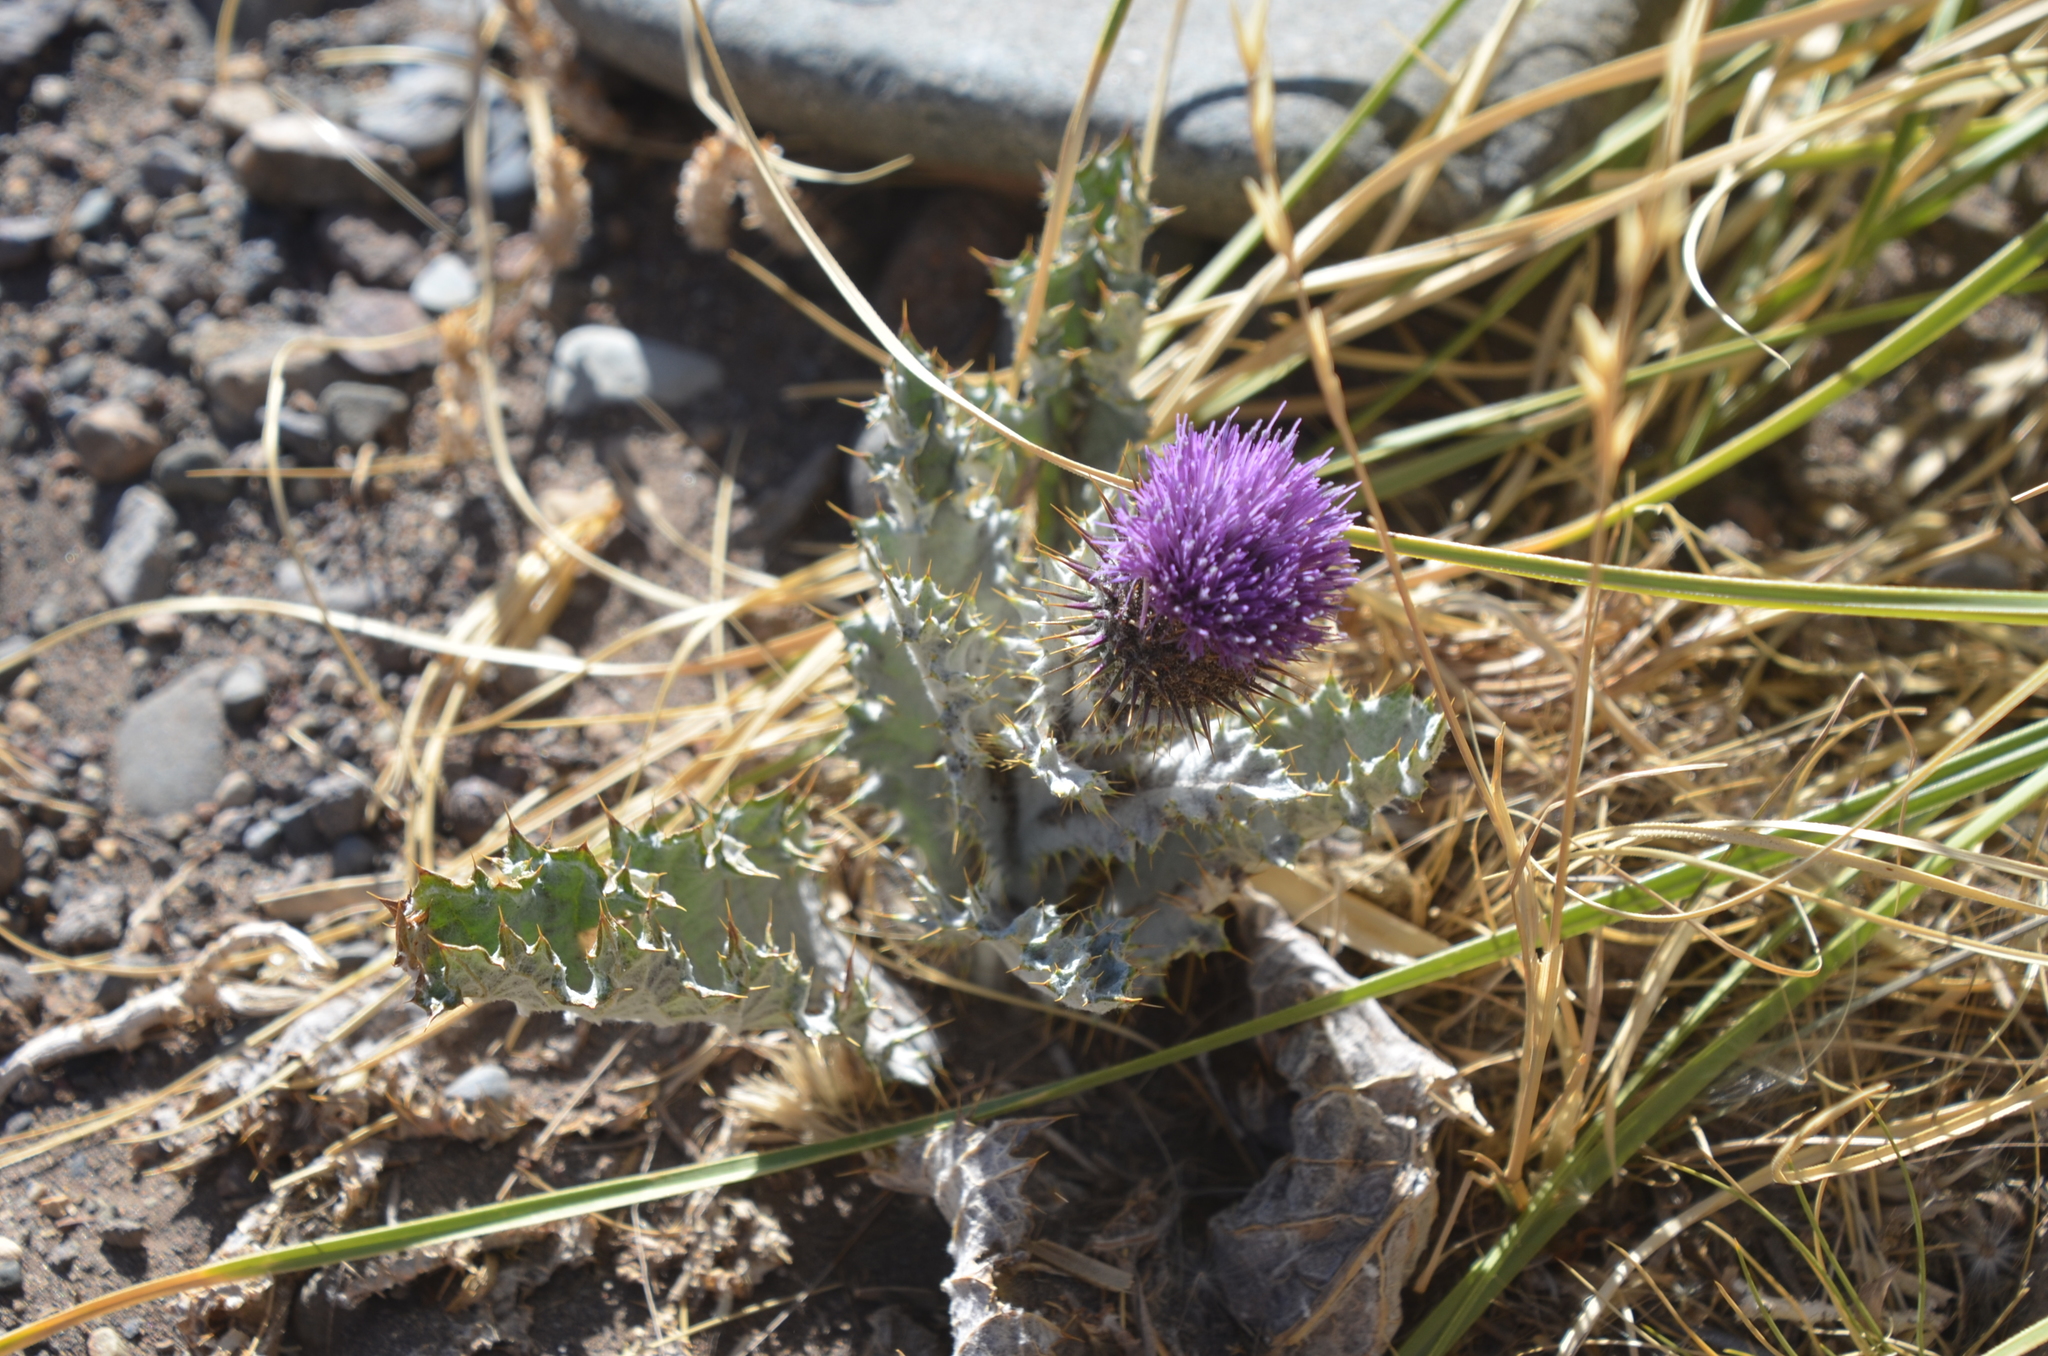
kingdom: Plantae
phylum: Tracheophyta
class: Magnoliopsida
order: Asterales
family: Asteraceae
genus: Onopordum
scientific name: Onopordum acanthium
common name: Scotch thistle
